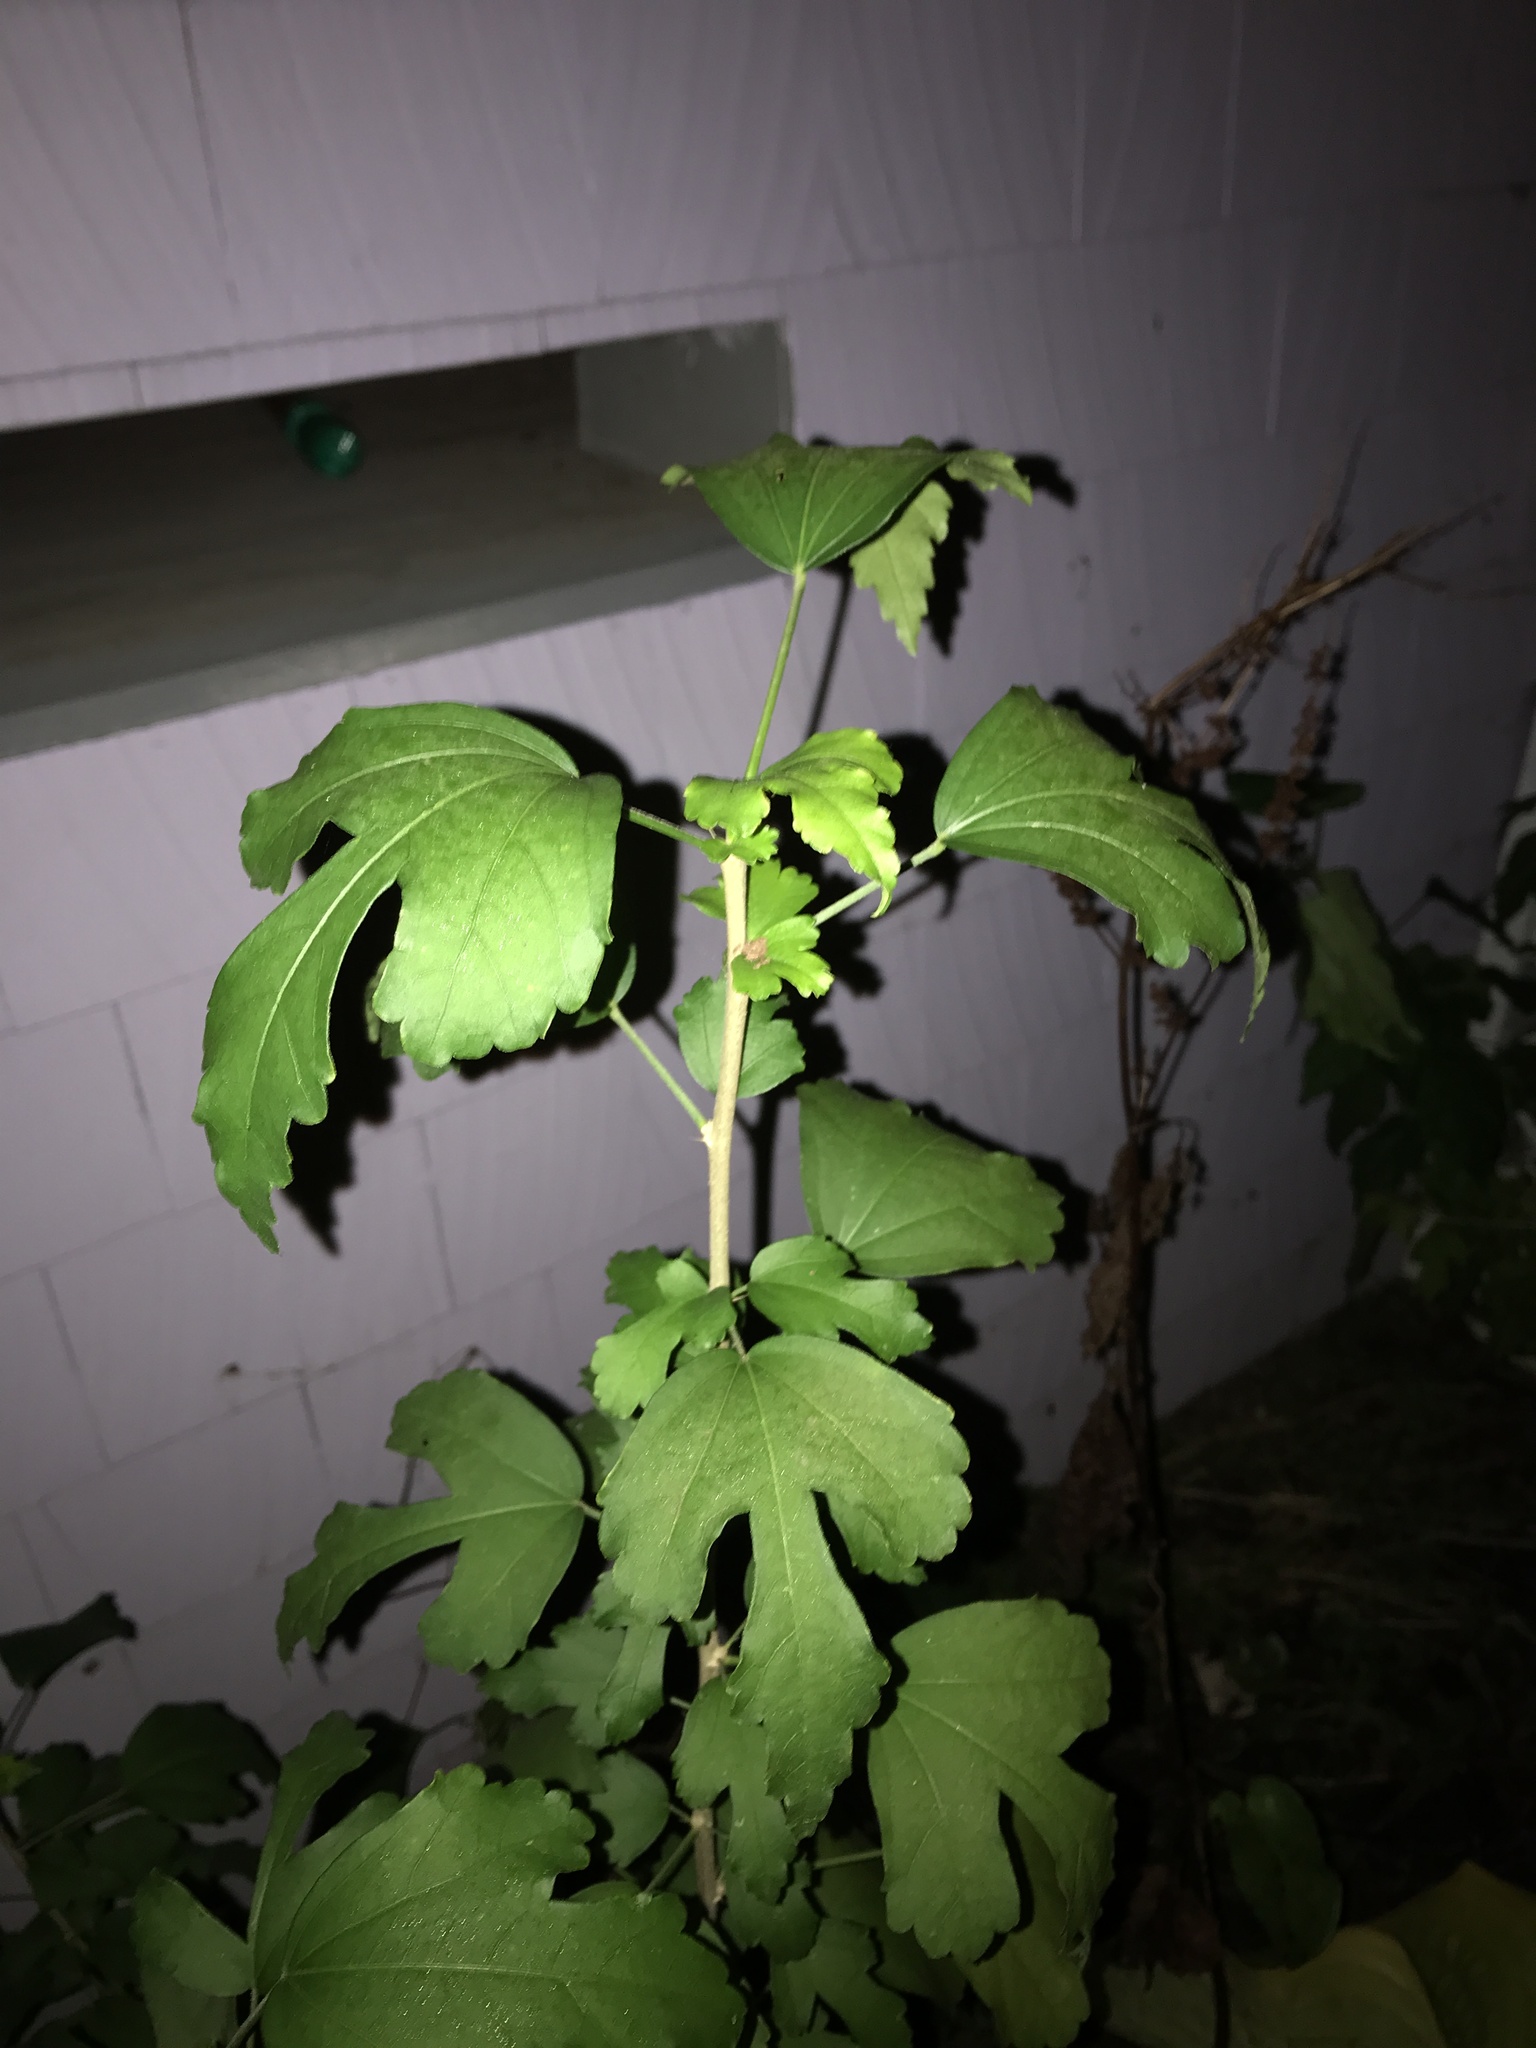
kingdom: Plantae
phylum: Tracheophyta
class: Magnoliopsida
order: Malvales
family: Malvaceae
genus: Hibiscus
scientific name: Hibiscus syriacus
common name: Syrian ketmia
